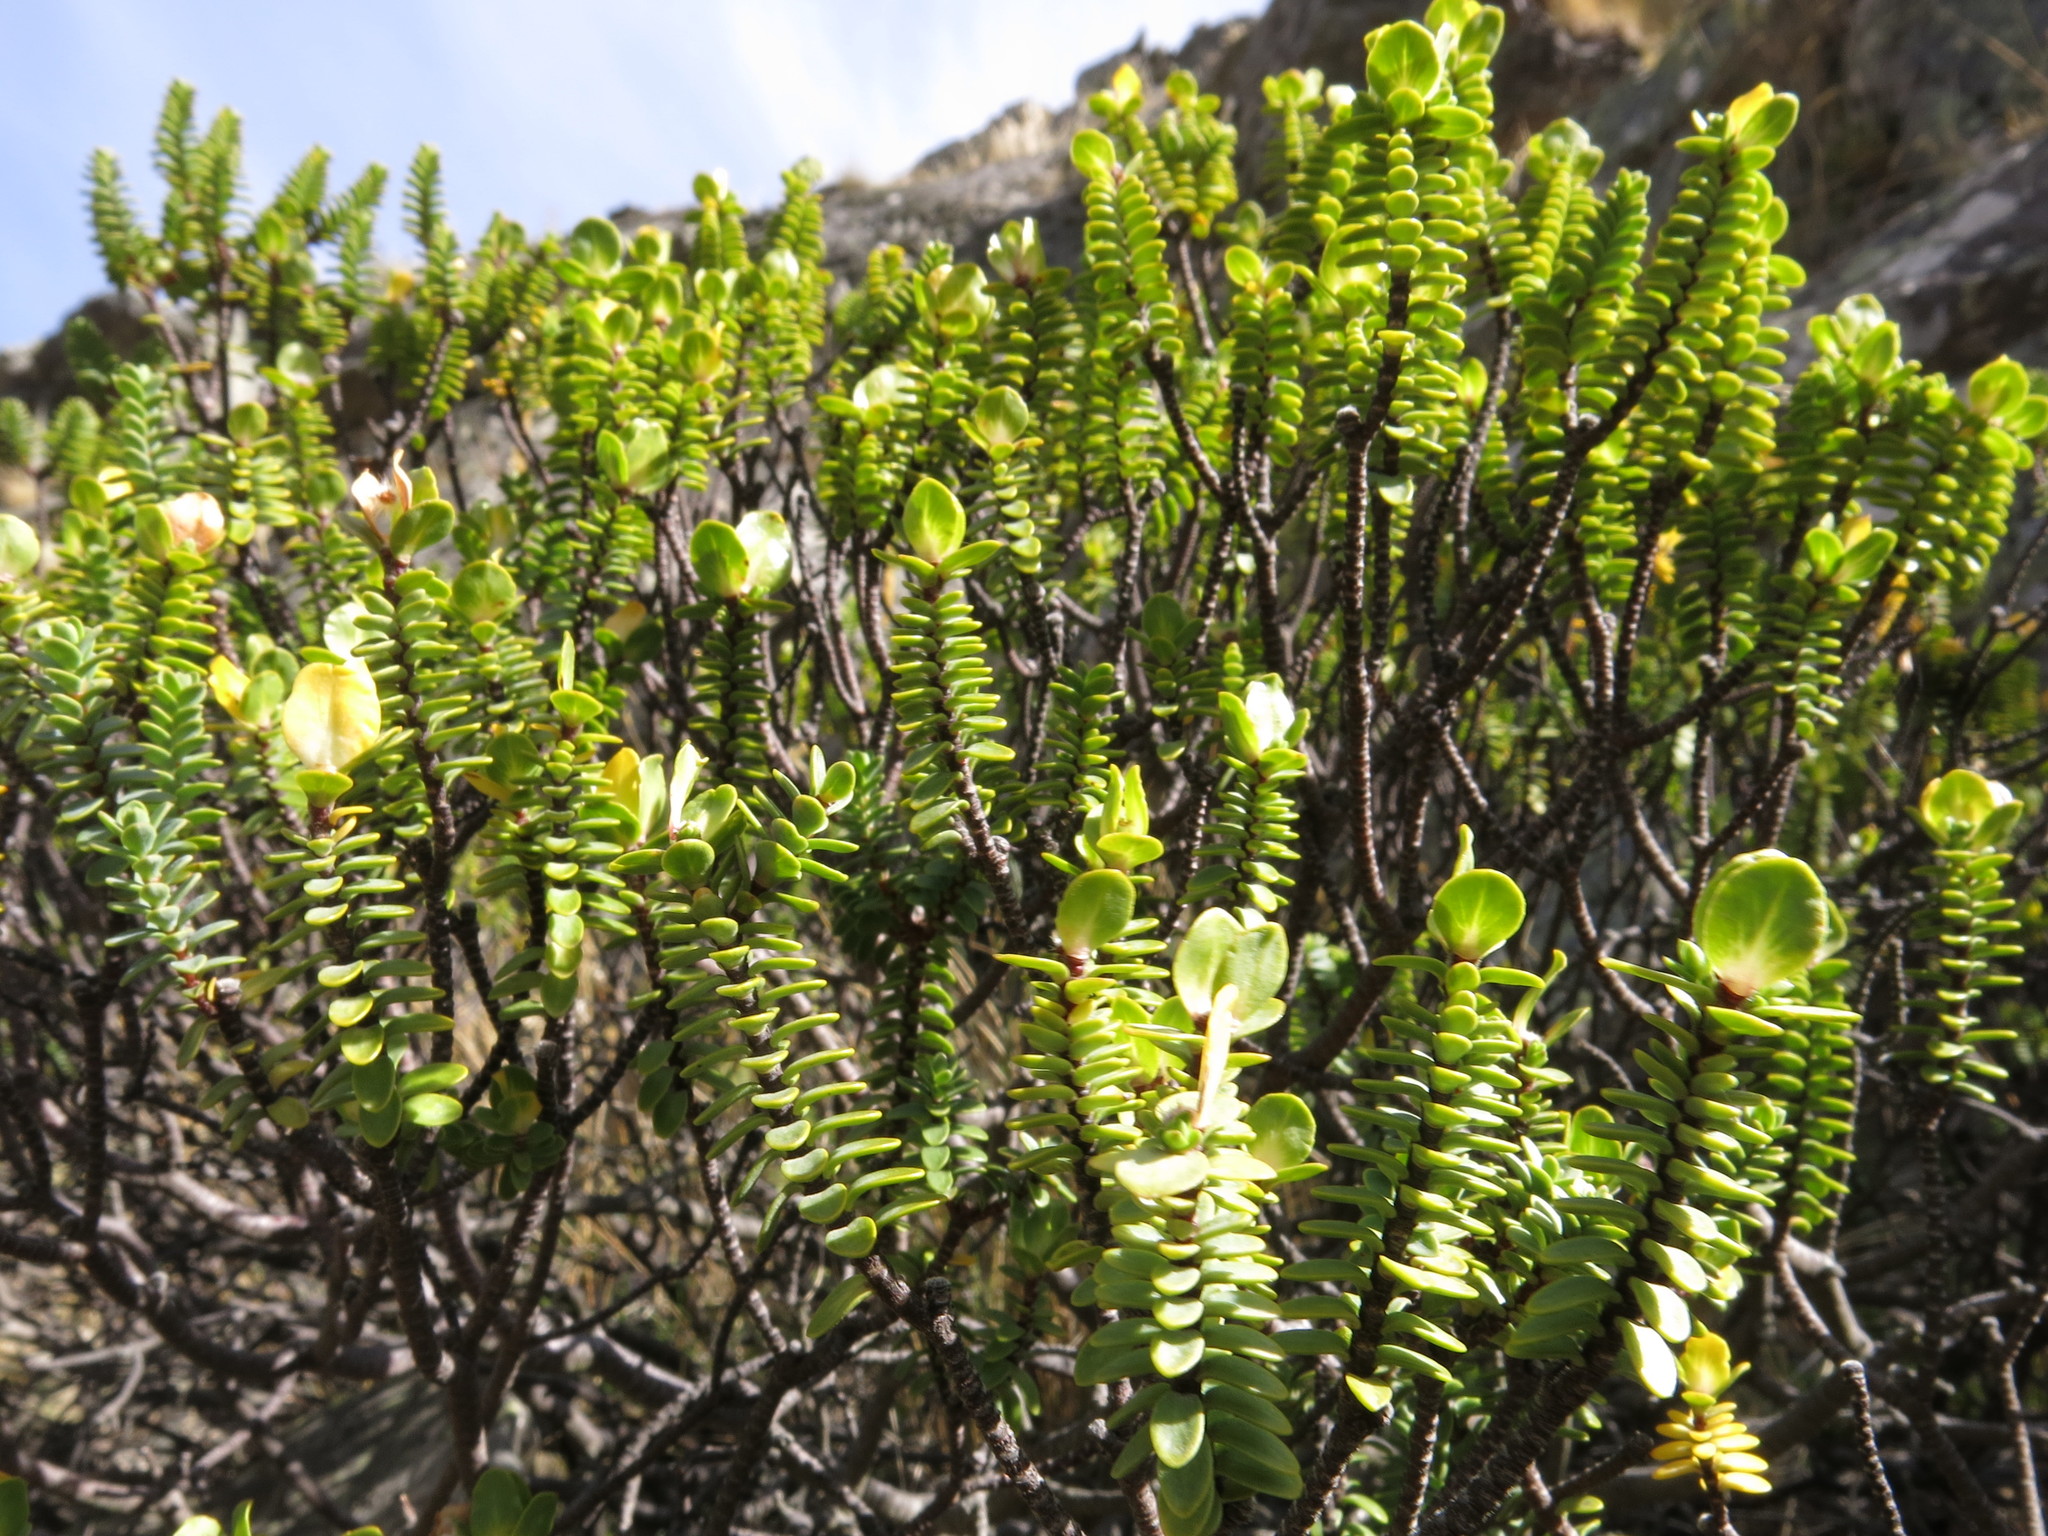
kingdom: Plantae
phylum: Tracheophyta
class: Magnoliopsida
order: Malvales
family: Thymelaeaceae
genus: Pimelea
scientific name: Pimelea traversii
